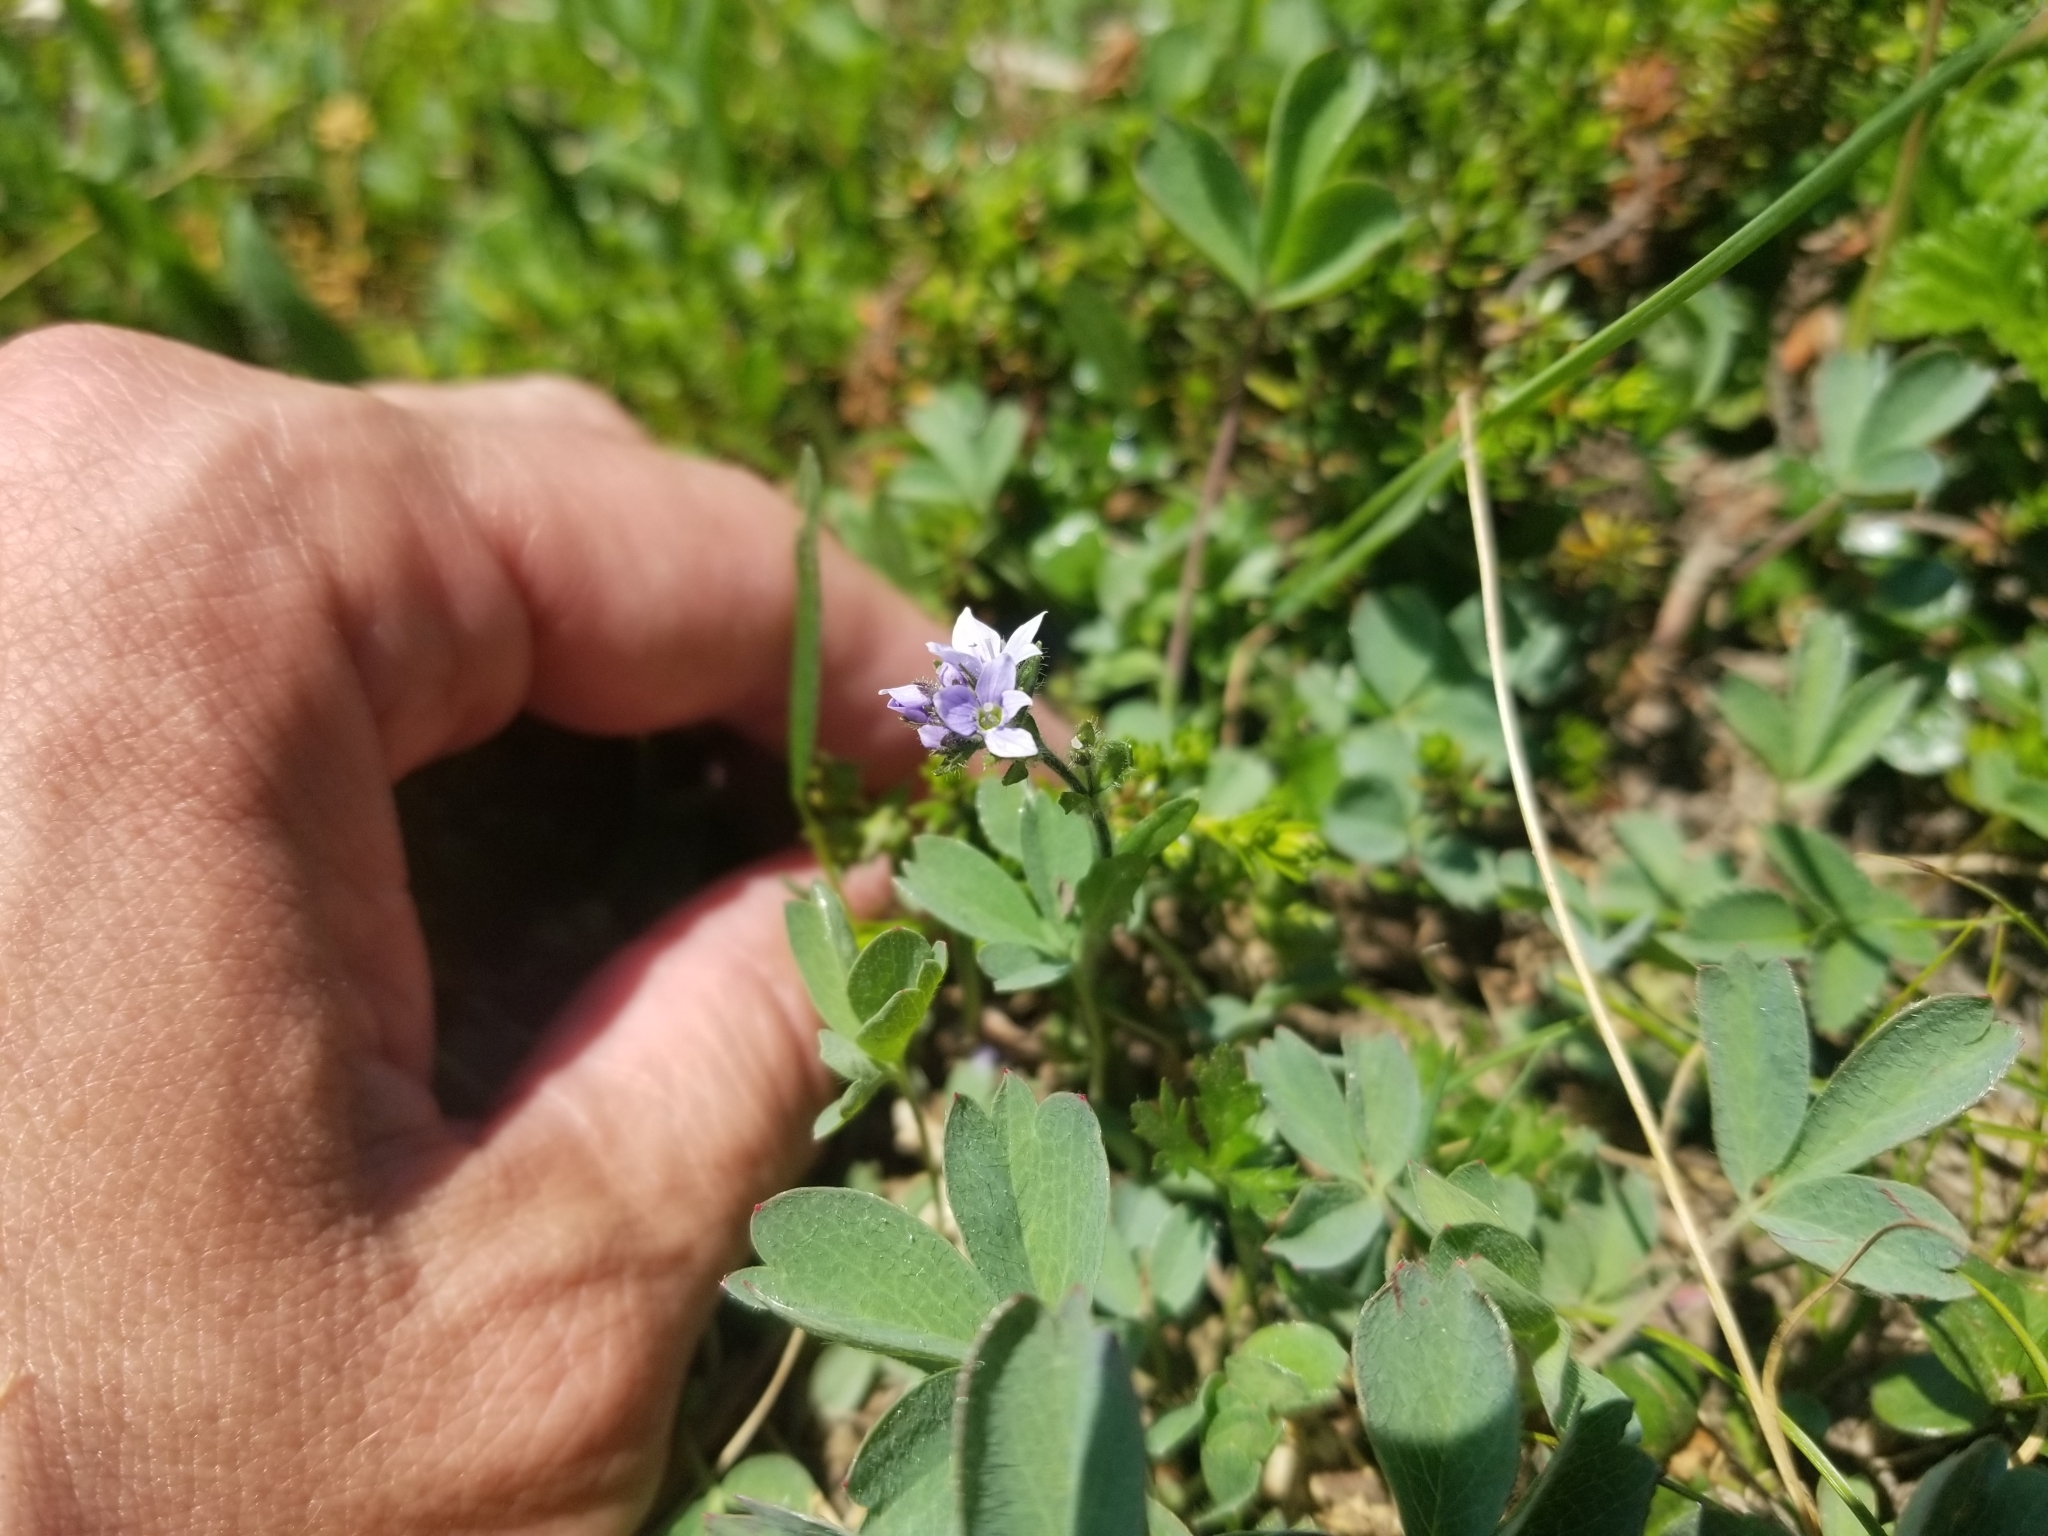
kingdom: Plantae
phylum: Tracheophyta
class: Magnoliopsida
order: Lamiales
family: Plantaginaceae
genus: Veronica
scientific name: Veronica wormskjoldii
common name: American alpine speedwell
